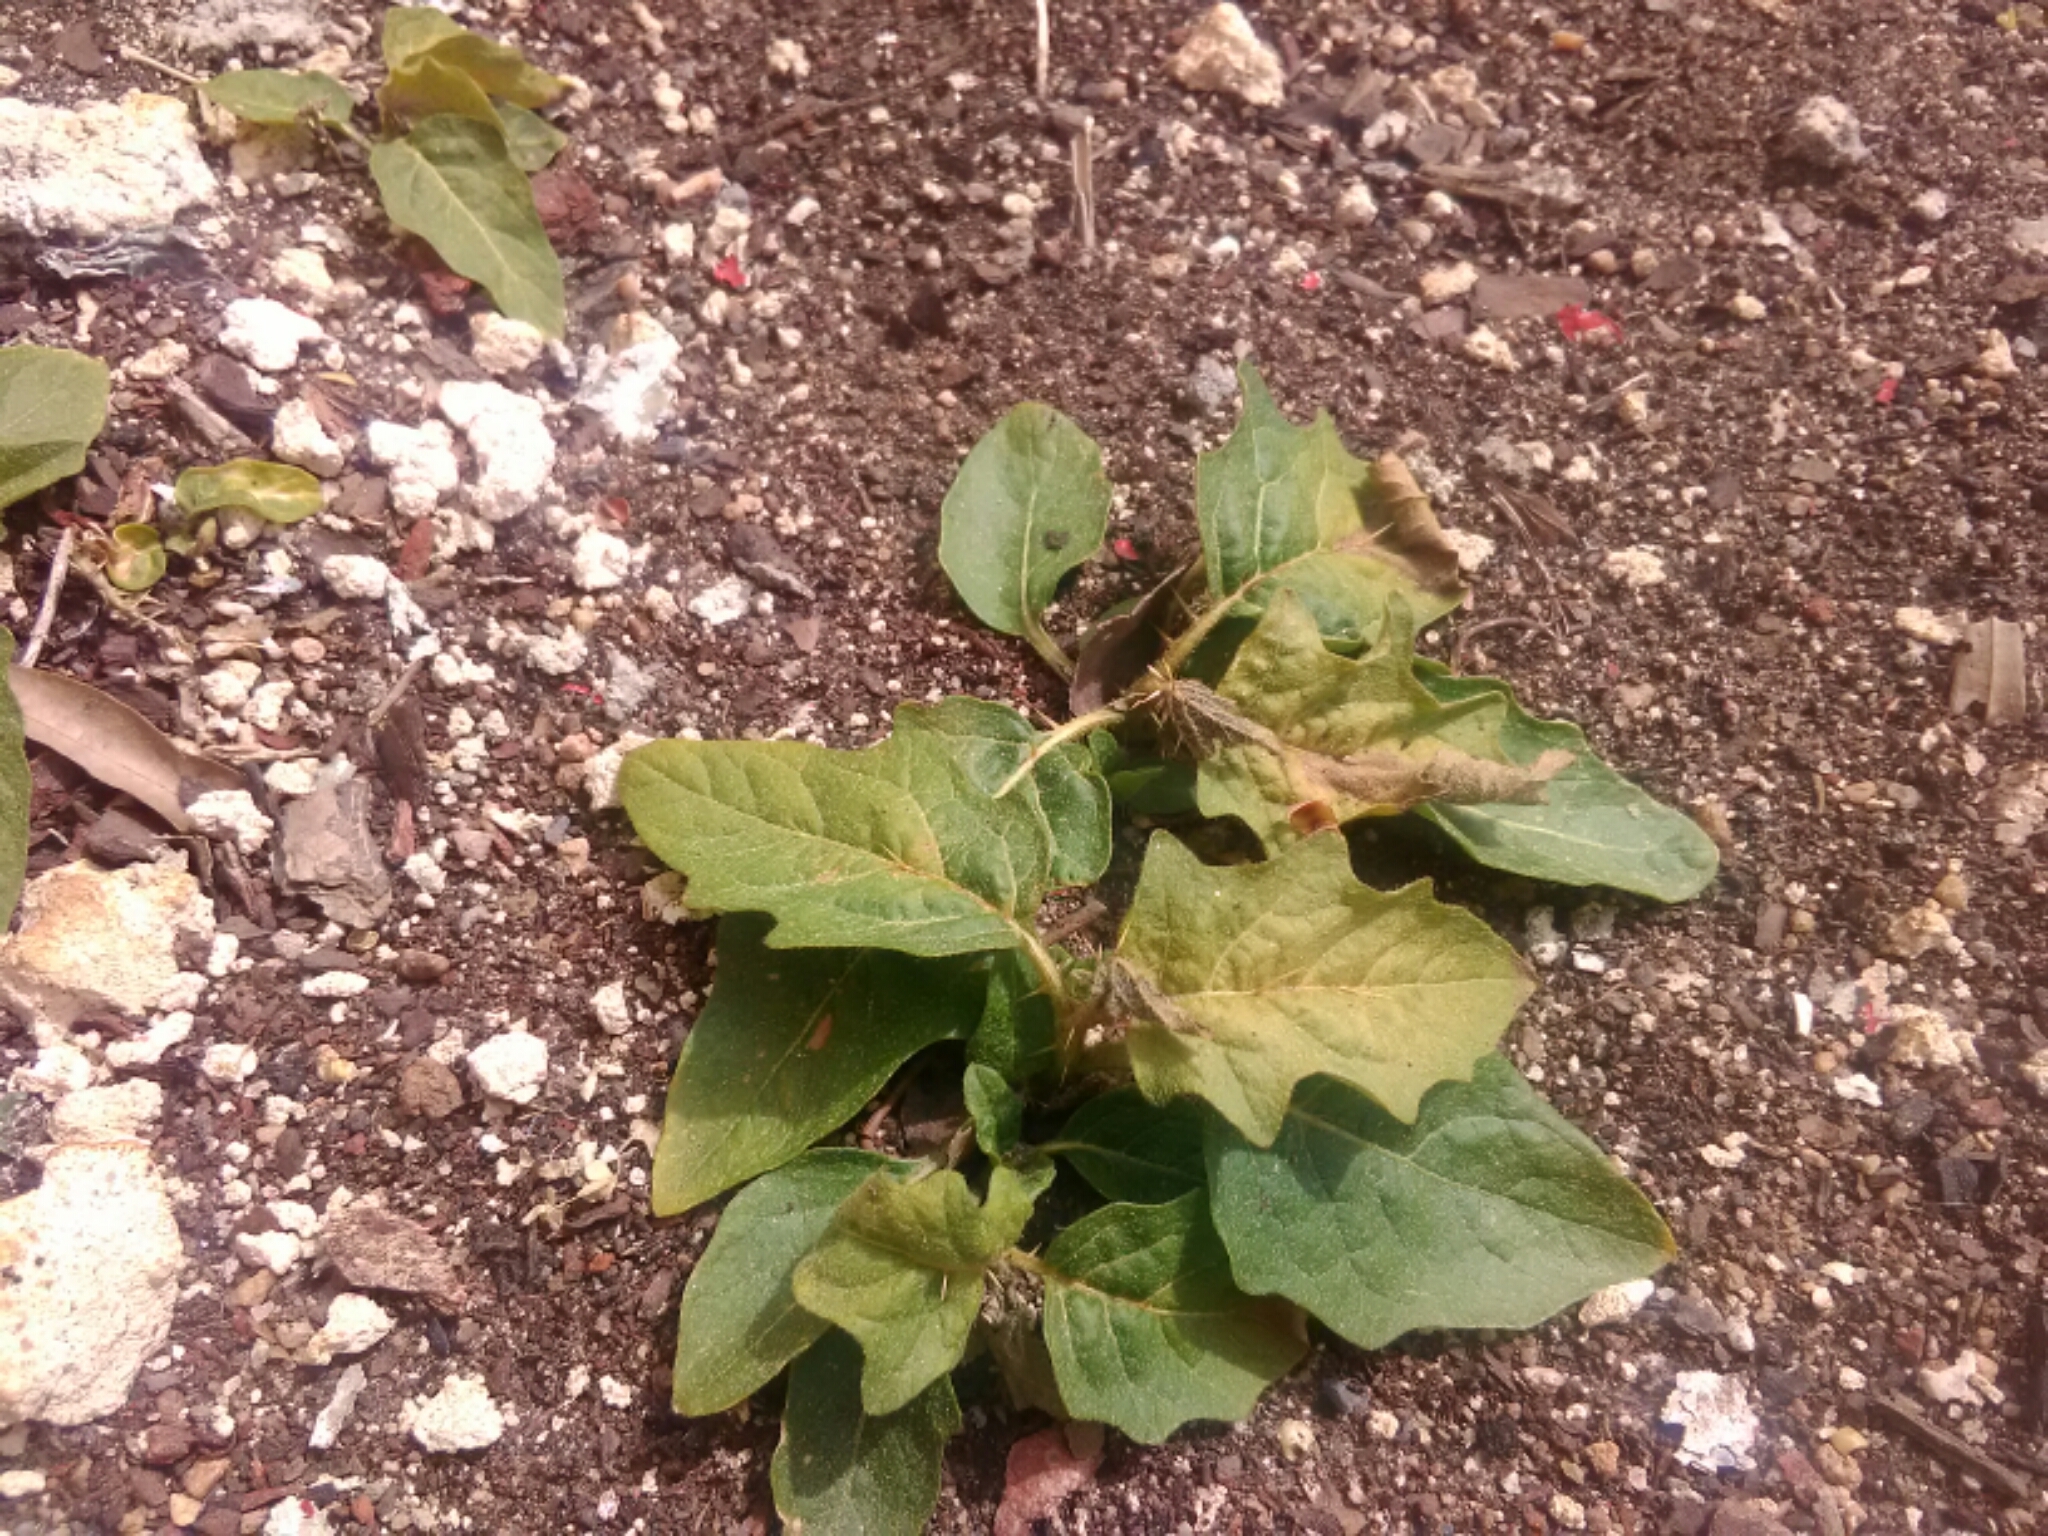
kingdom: Plantae
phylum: Tracheophyta
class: Magnoliopsida
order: Solanales
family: Solanaceae
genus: Solanum
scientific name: Solanum carolinense
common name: Horse-nettle
